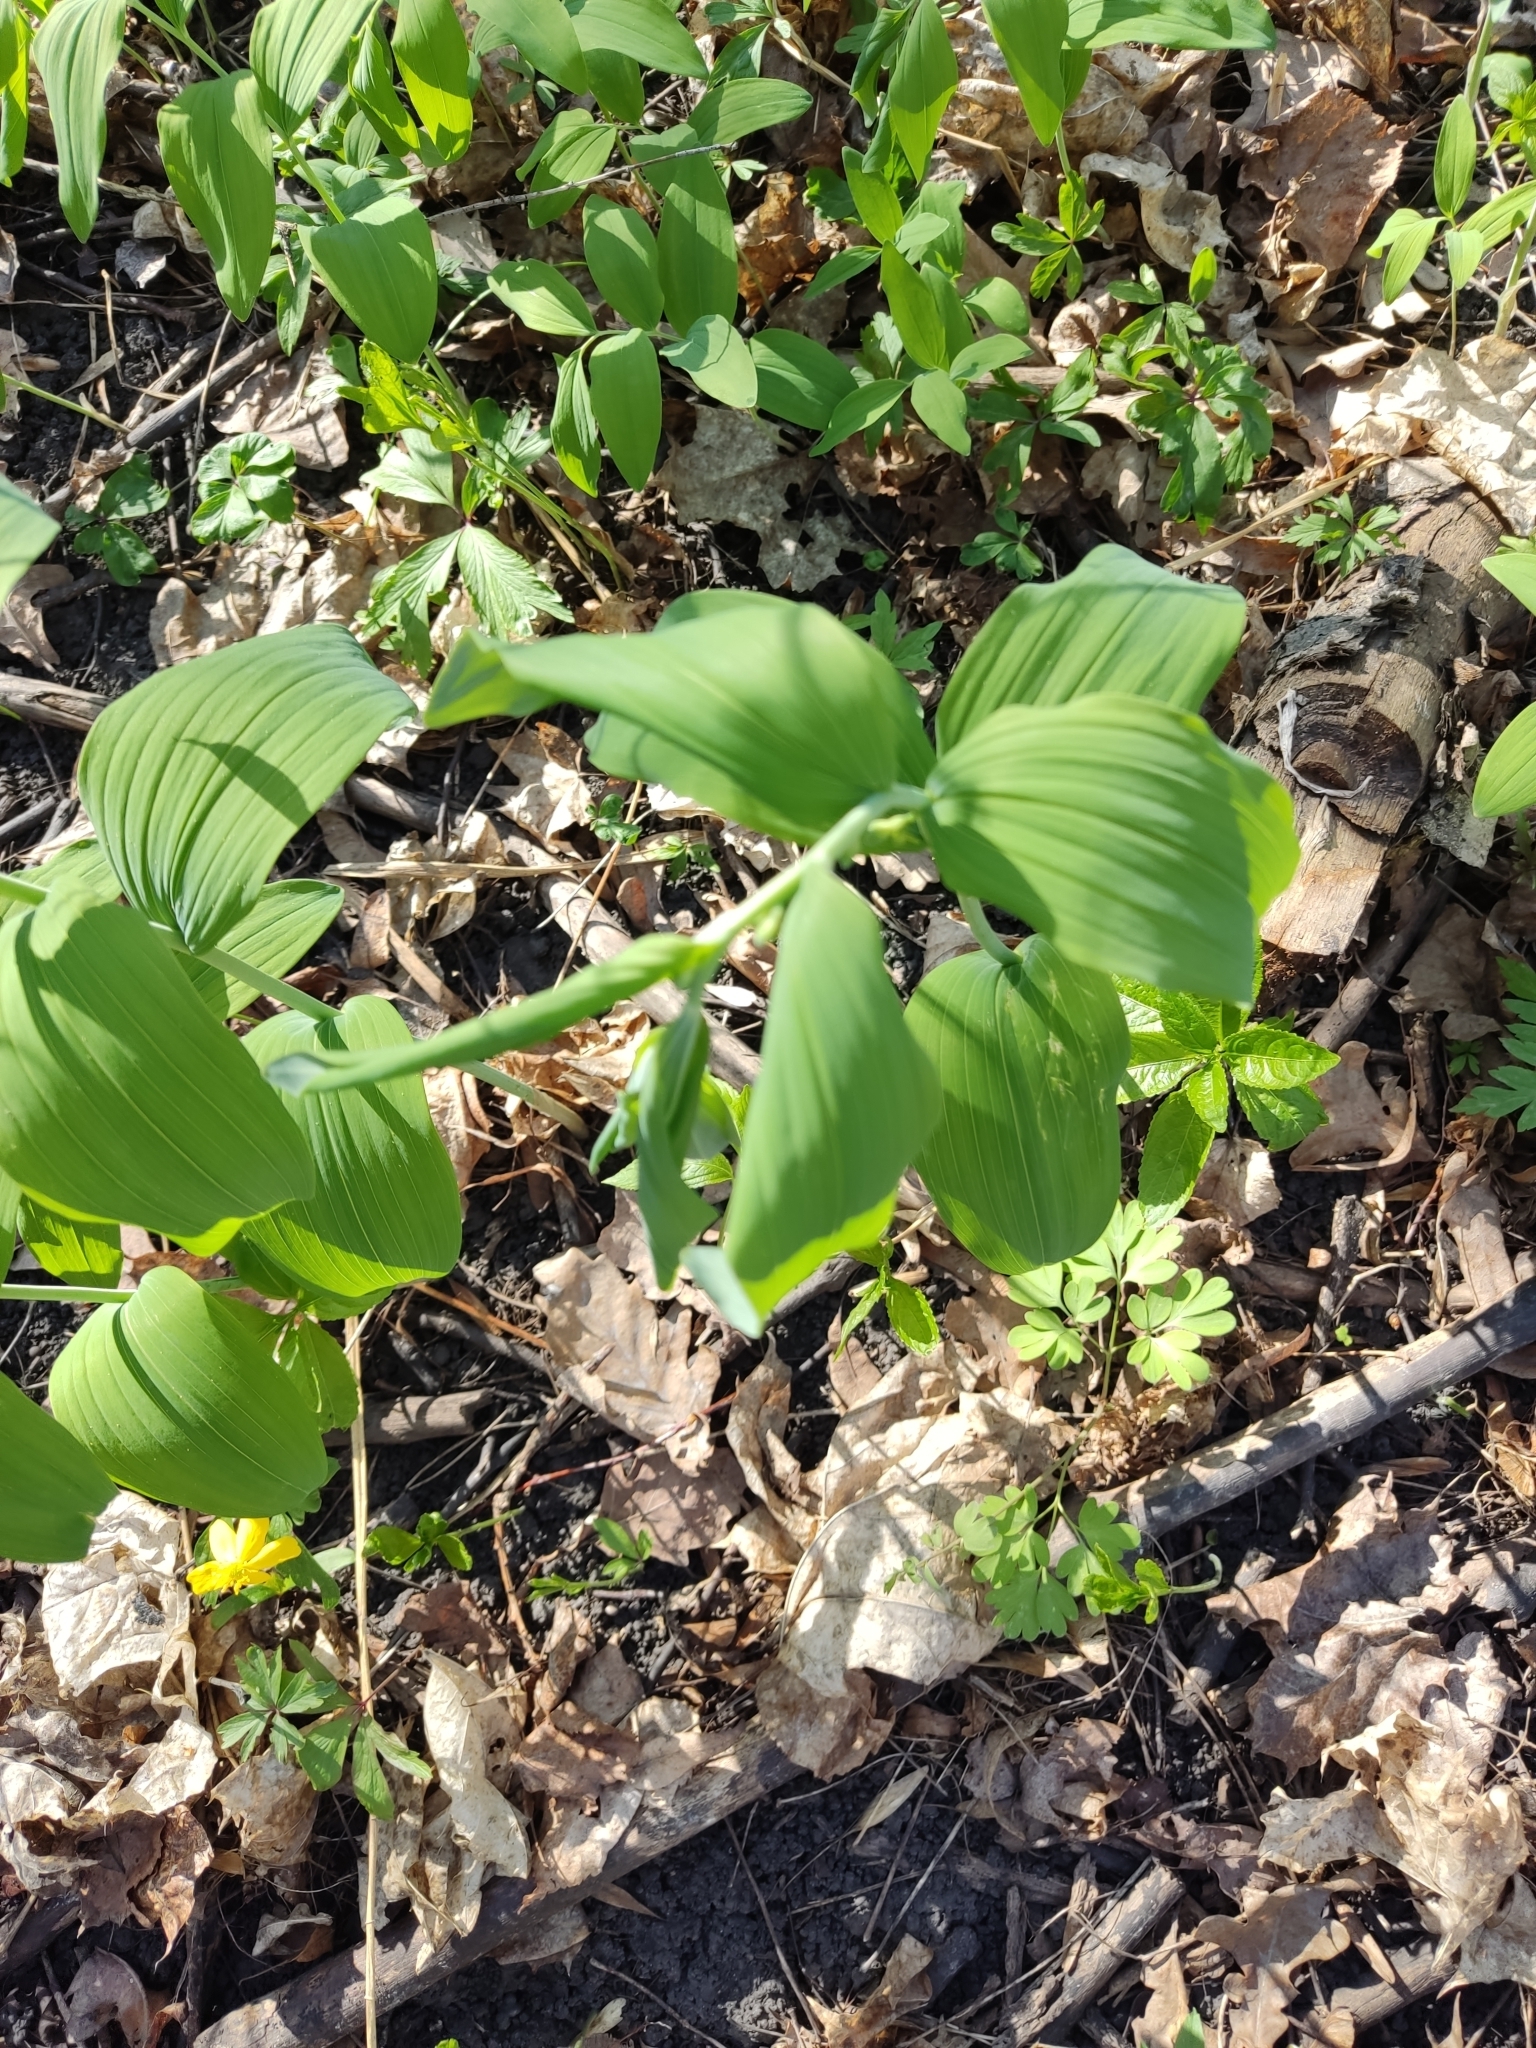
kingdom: Plantae
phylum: Tracheophyta
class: Liliopsida
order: Asparagales
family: Asparagaceae
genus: Polygonatum
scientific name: Polygonatum multiflorum
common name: Solomon's-seal
